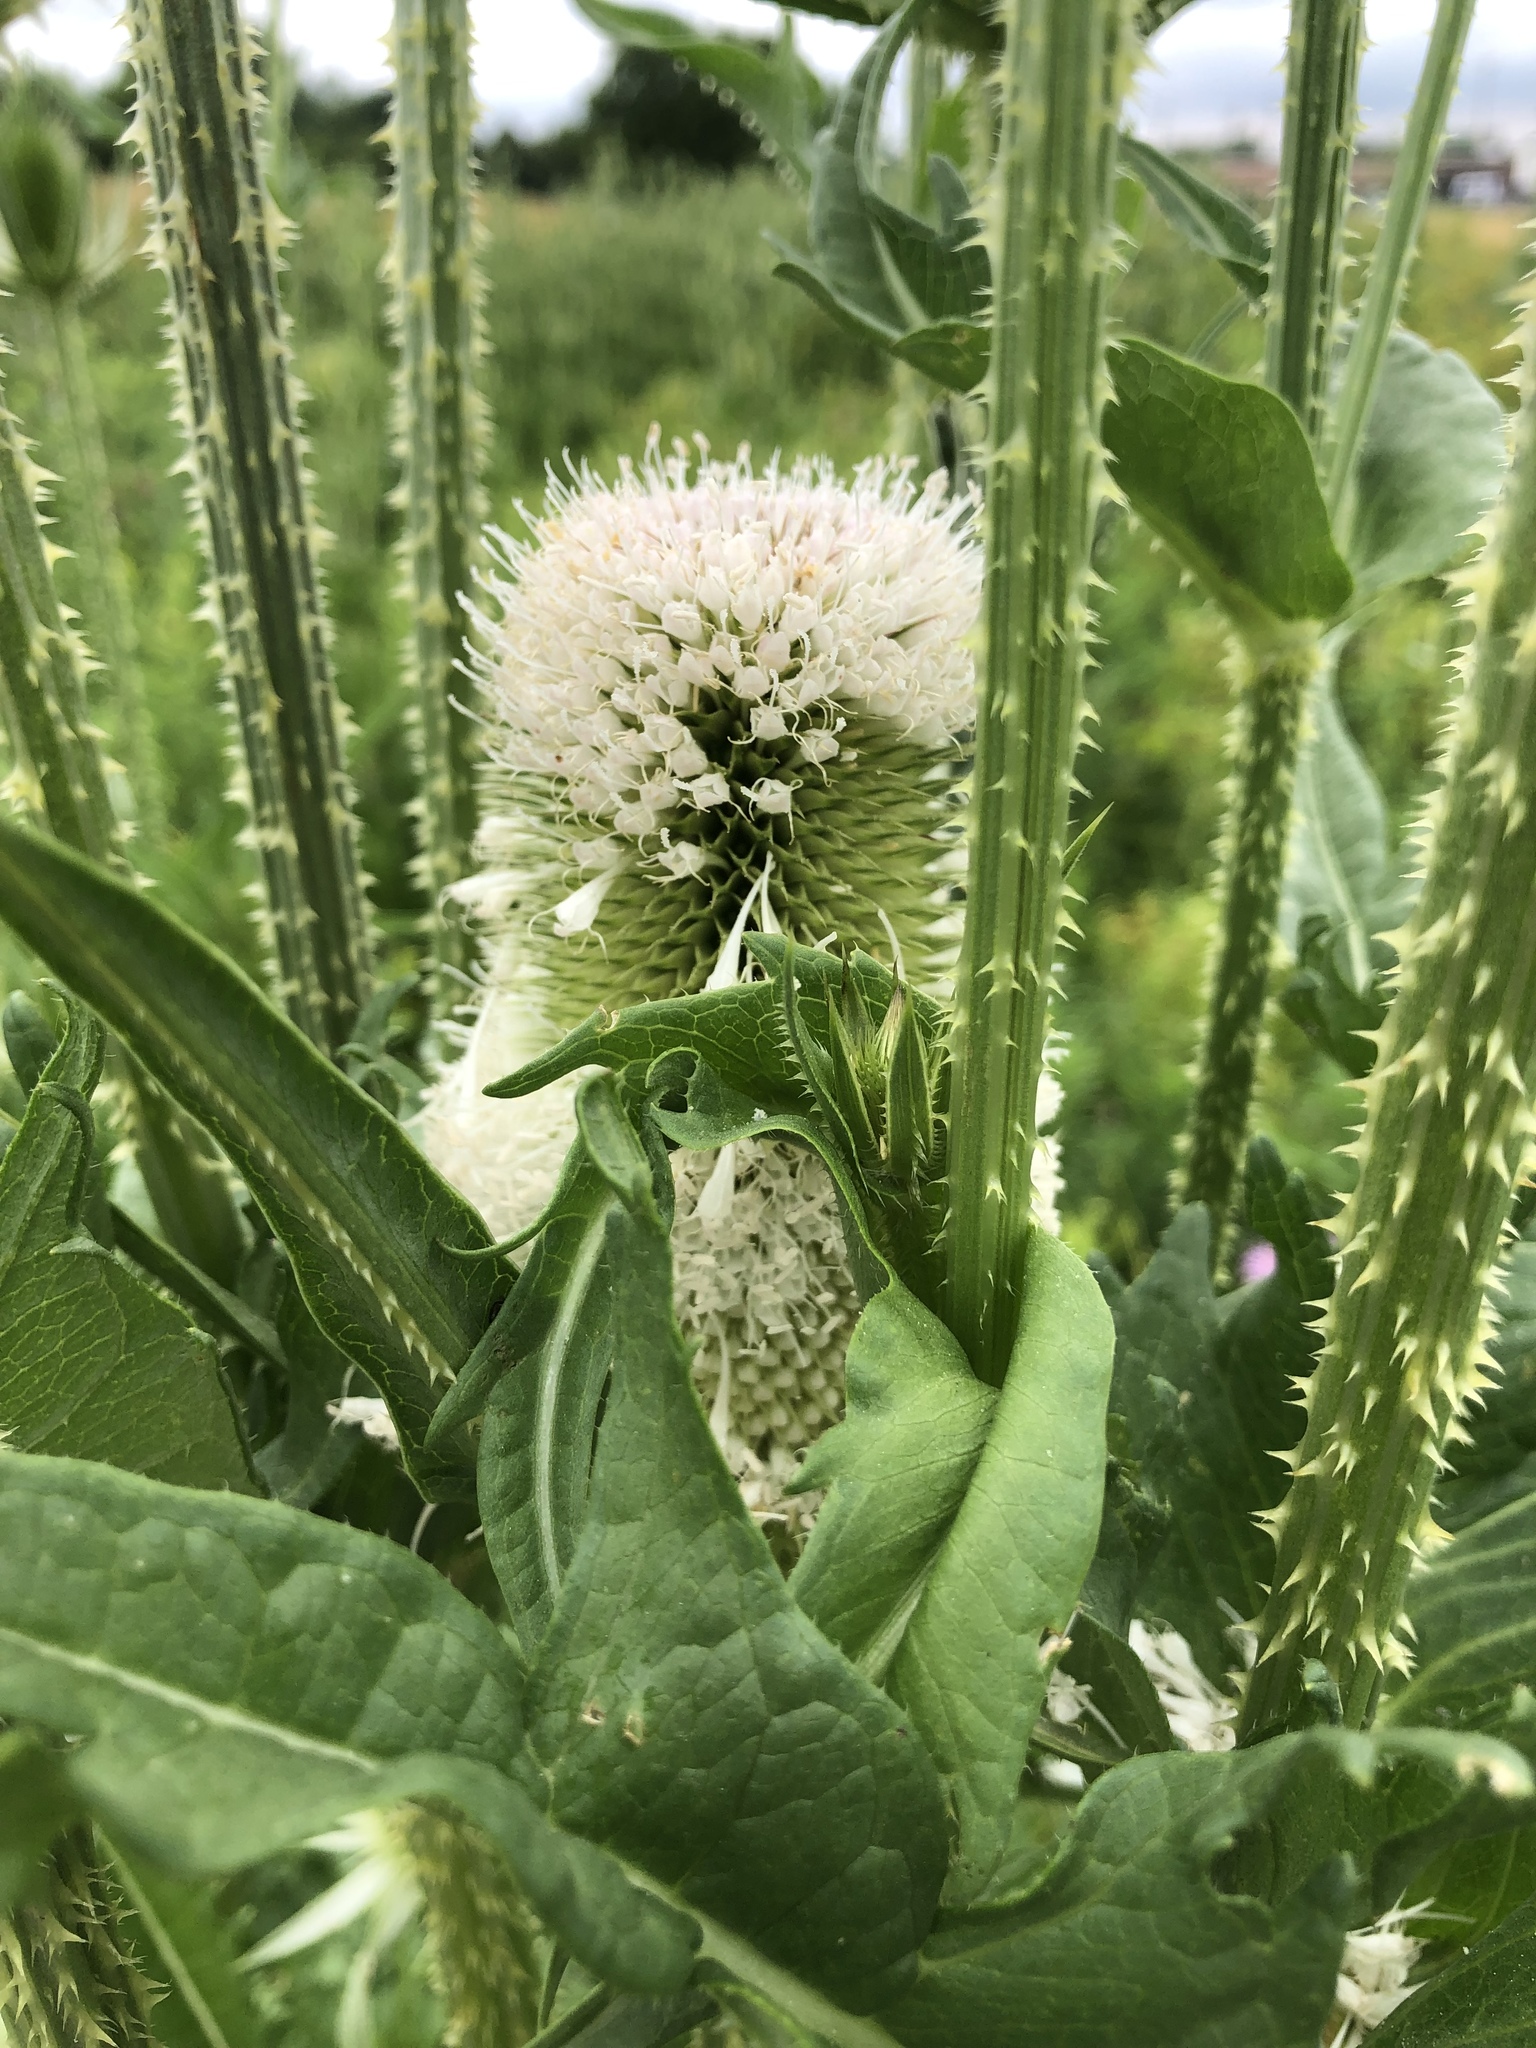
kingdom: Plantae
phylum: Tracheophyta
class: Magnoliopsida
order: Dipsacales
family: Caprifoliaceae
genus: Dipsacus
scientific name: Dipsacus laciniatus
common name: Cut-leaved teasel
